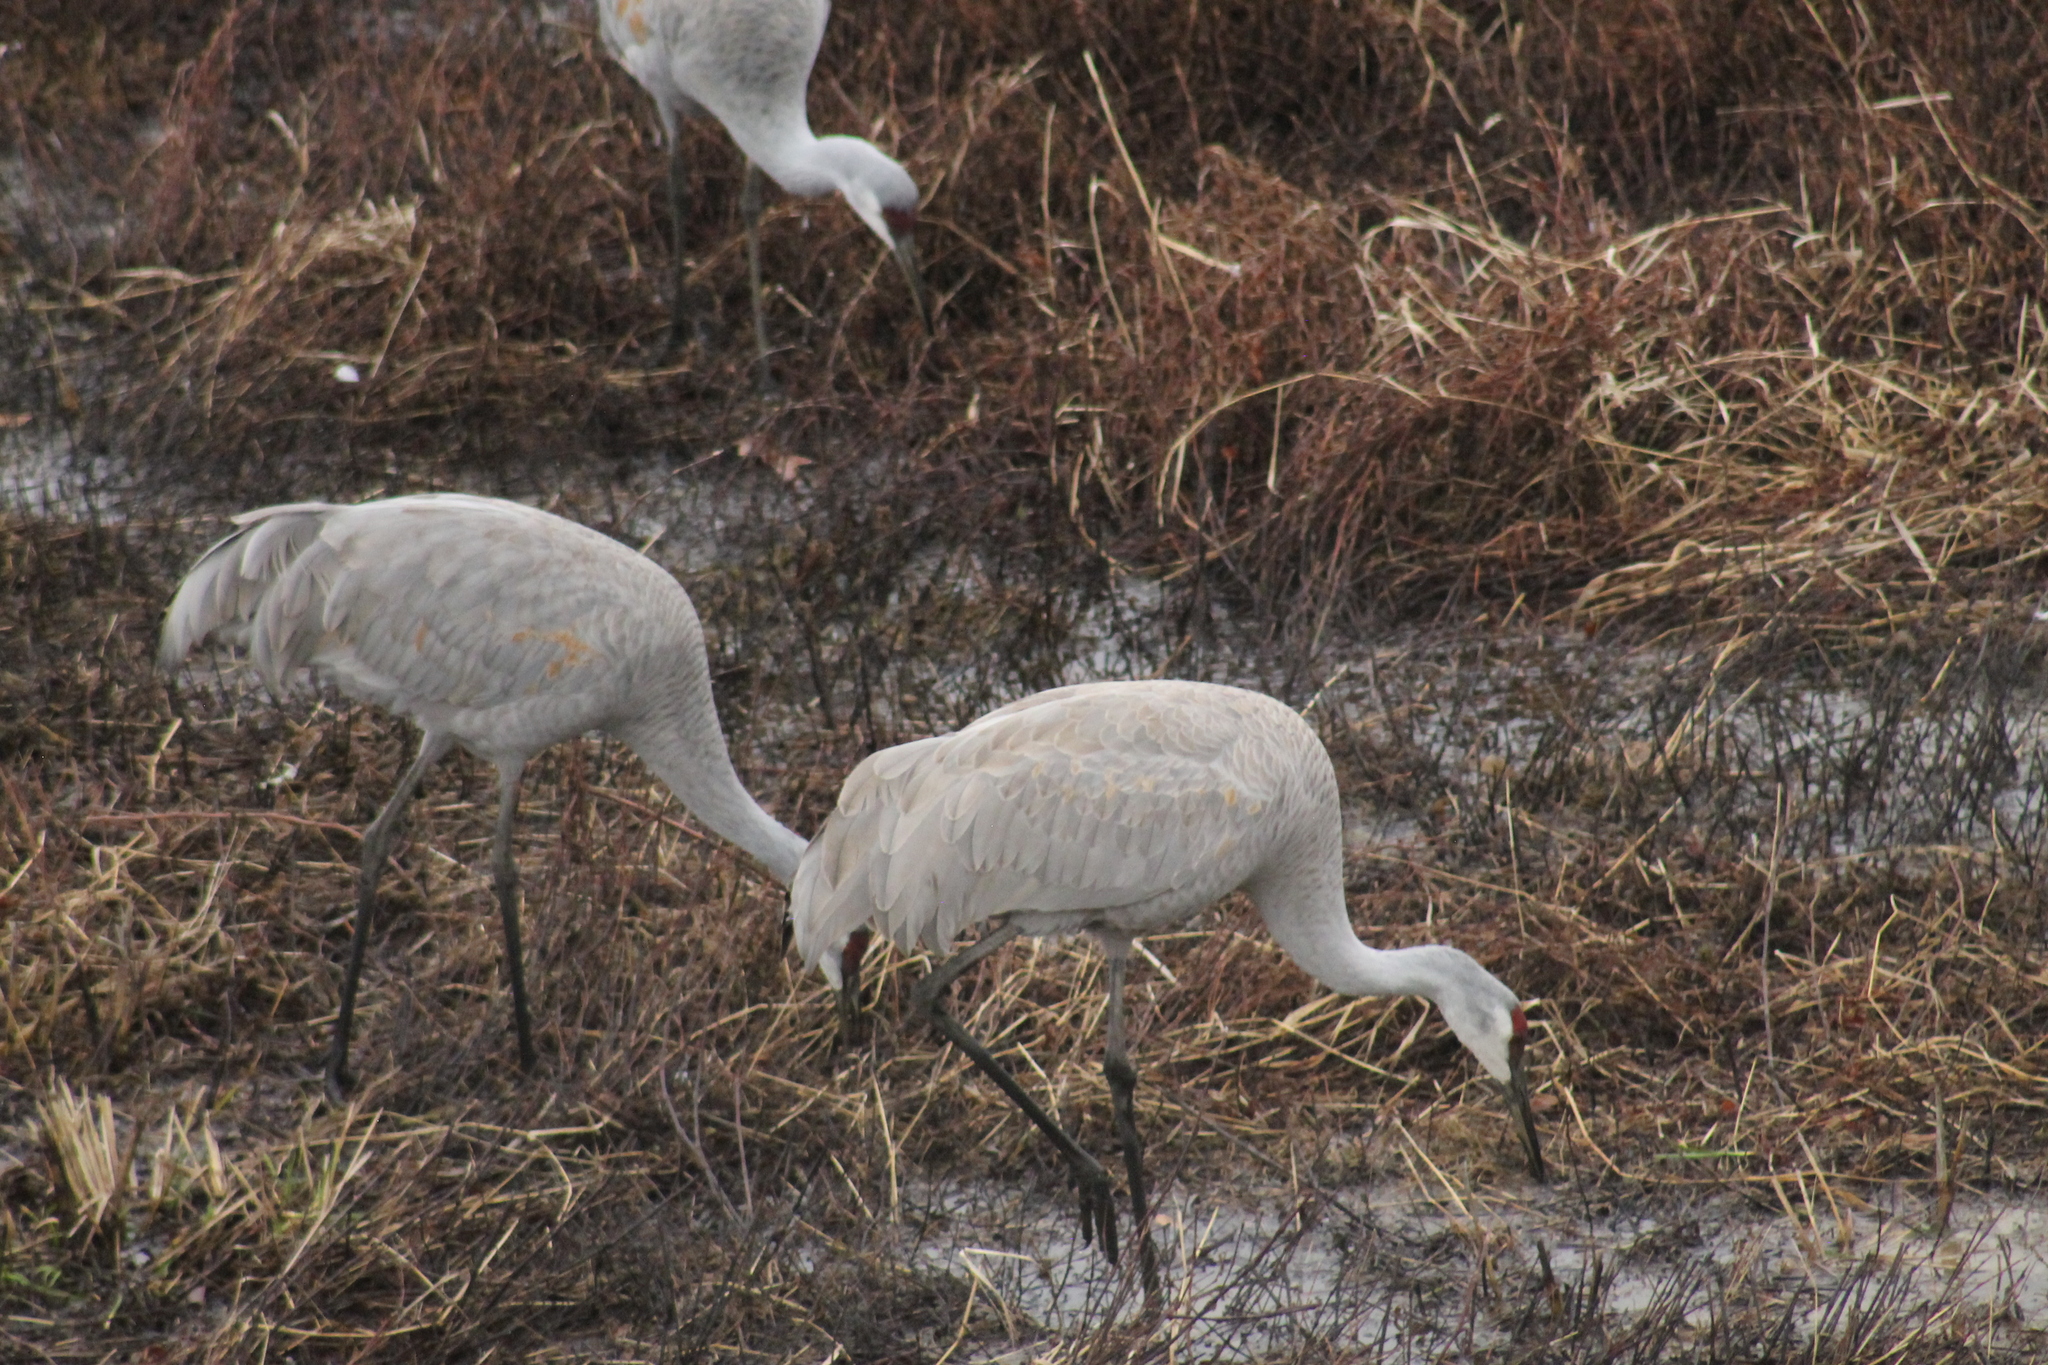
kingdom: Animalia
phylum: Chordata
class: Aves
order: Gruiformes
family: Gruidae
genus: Grus
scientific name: Grus canadensis
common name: Sandhill crane
